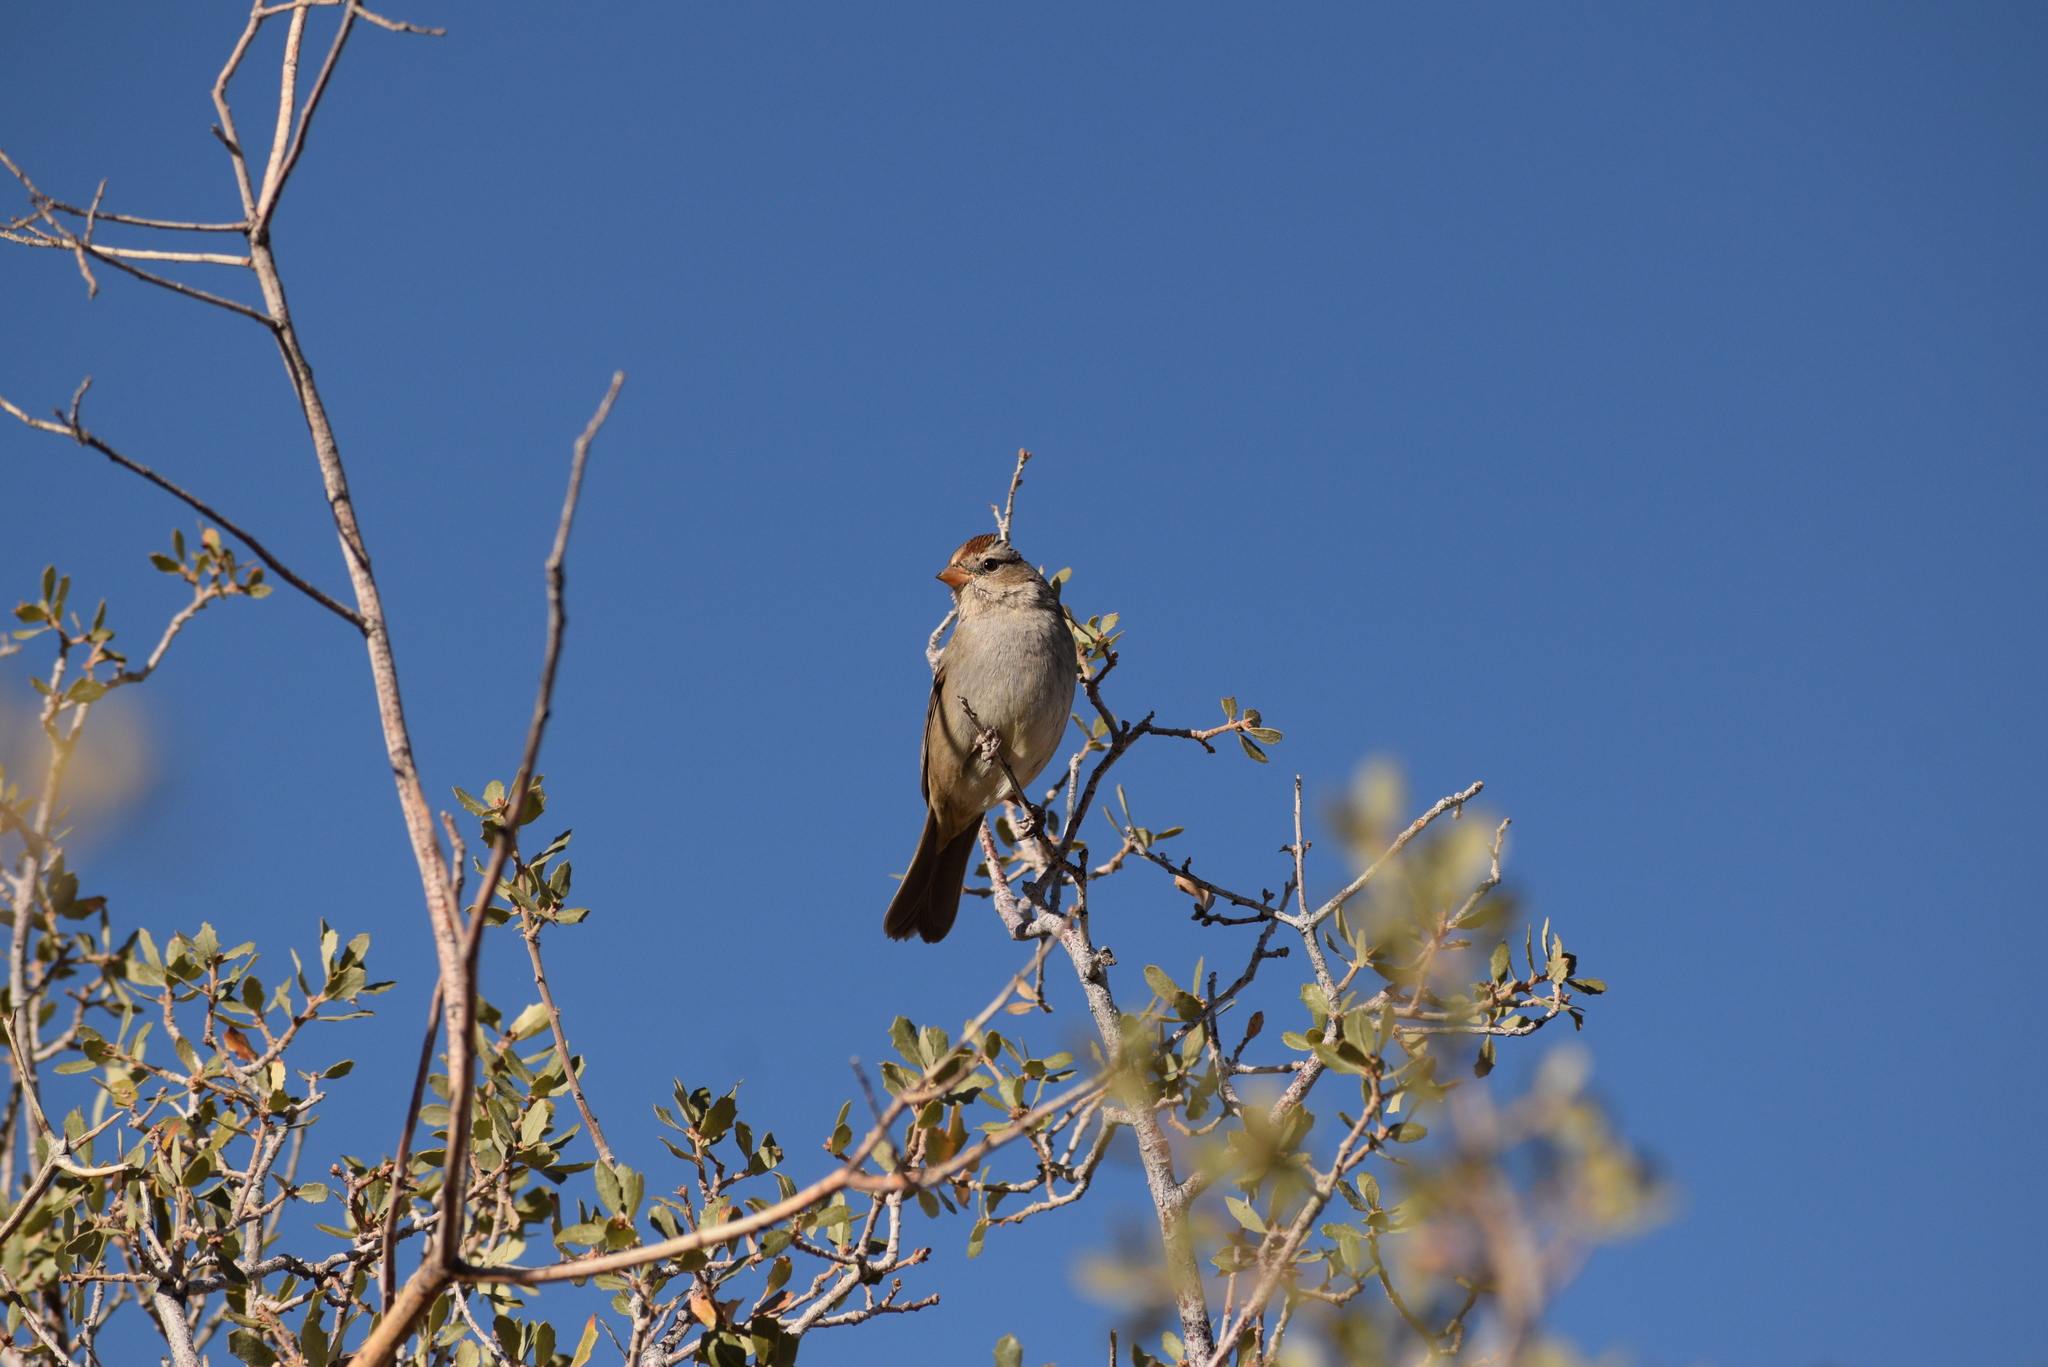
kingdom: Animalia
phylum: Chordata
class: Aves
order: Passeriformes
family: Passerellidae
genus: Zonotrichia
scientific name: Zonotrichia leucophrys
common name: White-crowned sparrow
